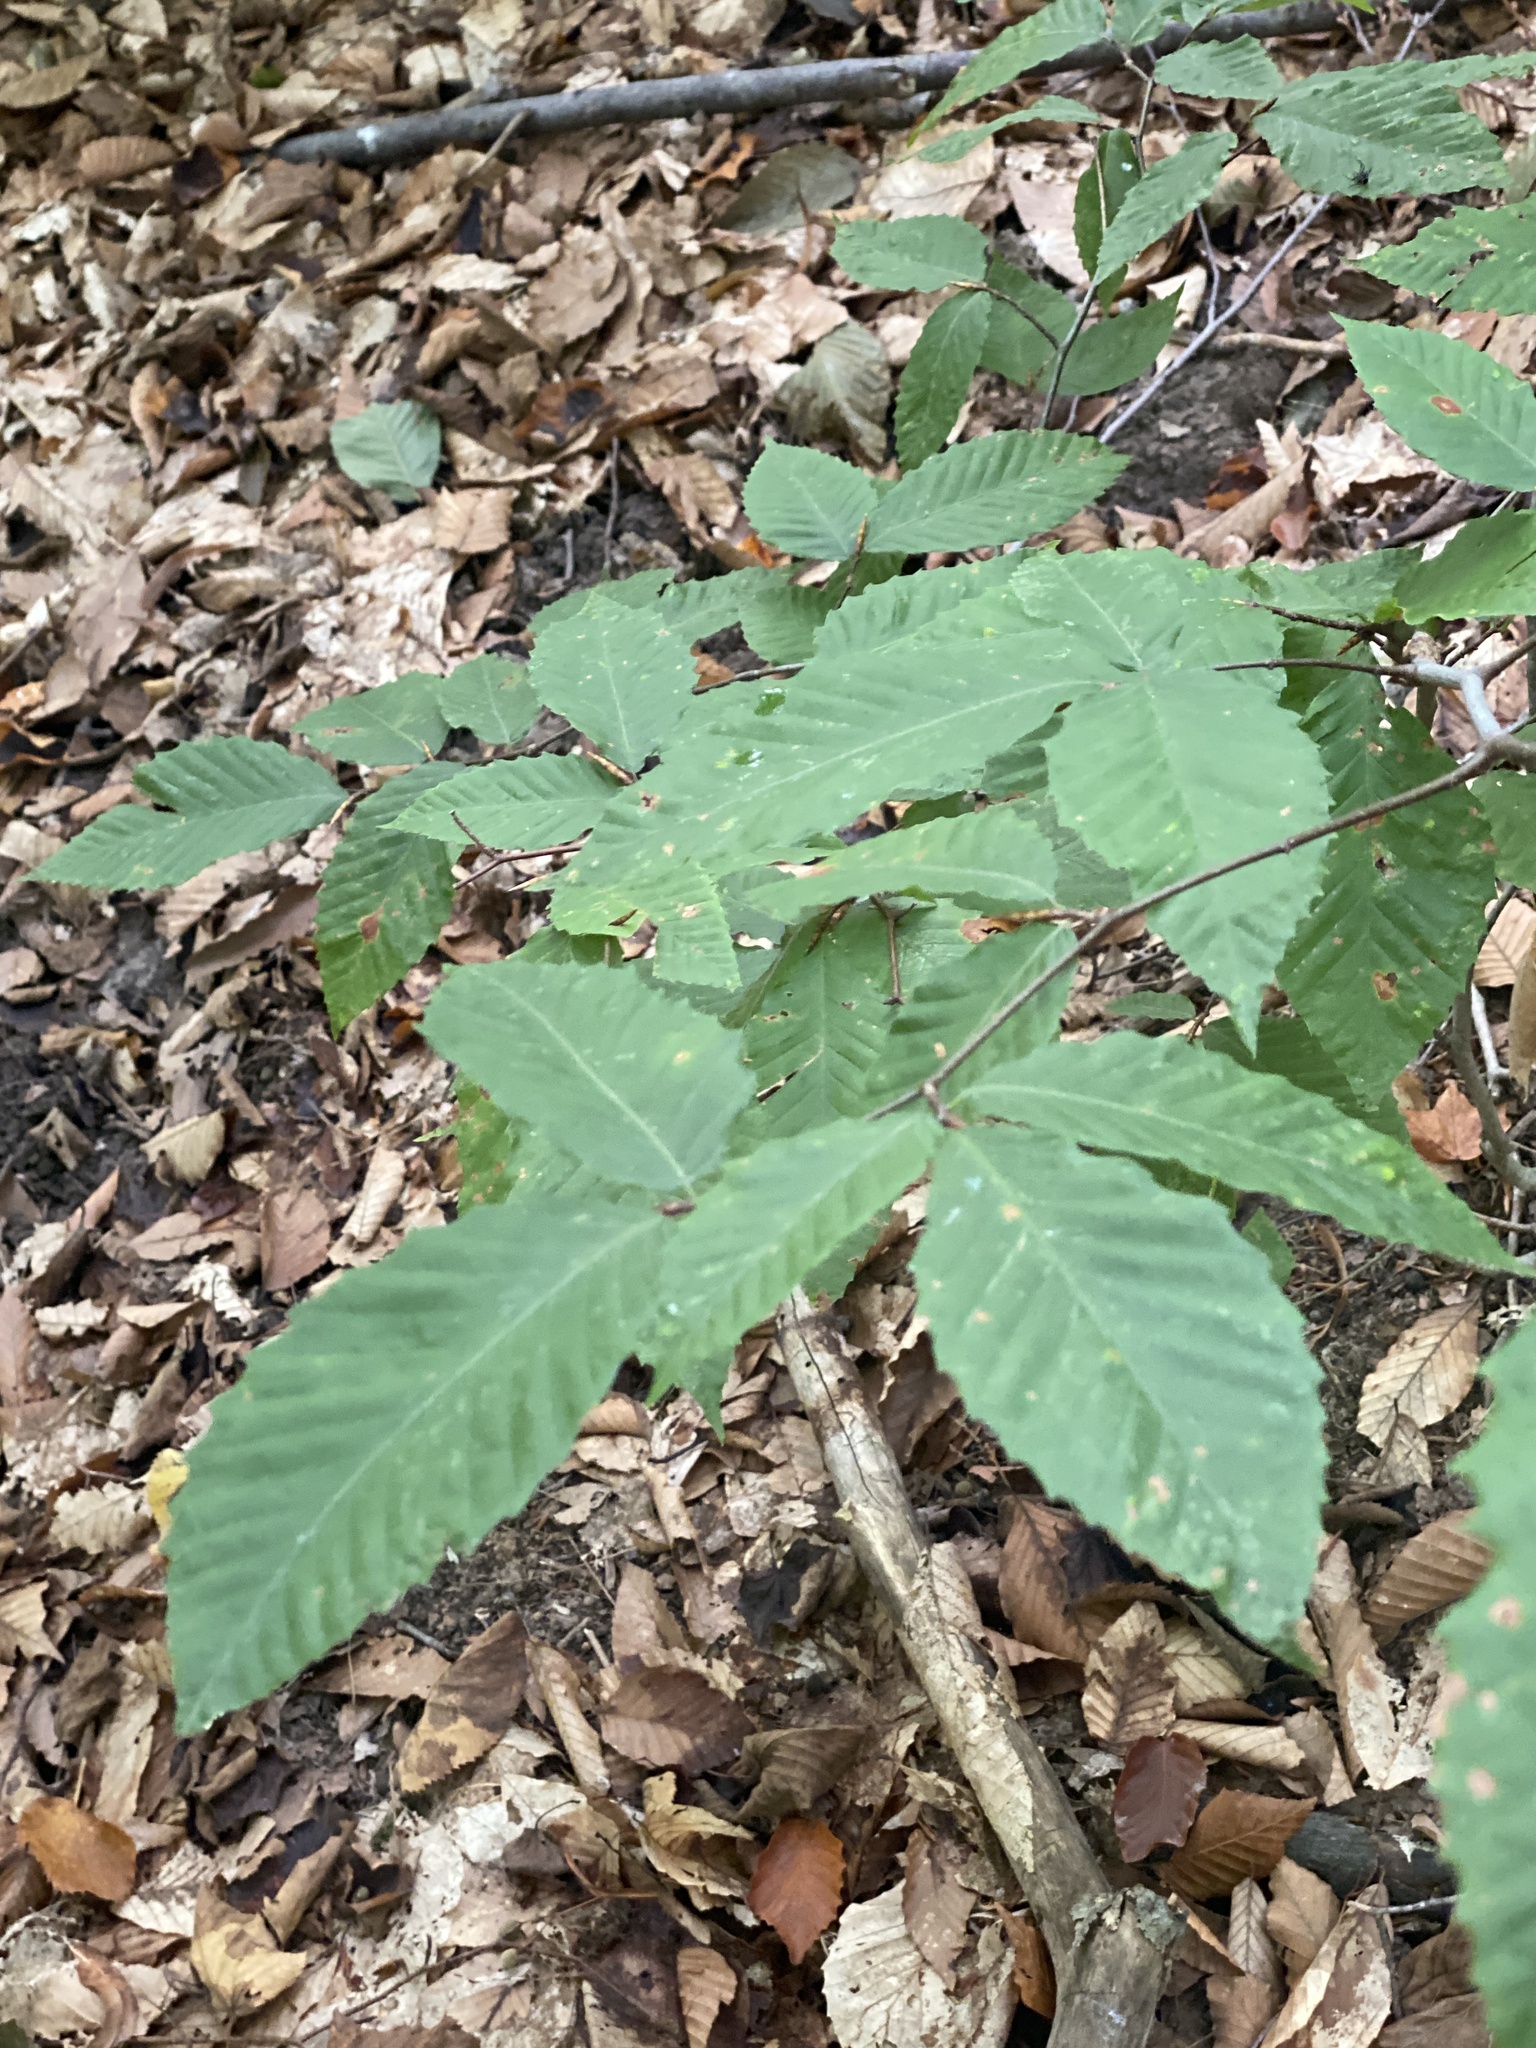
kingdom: Plantae
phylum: Tracheophyta
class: Magnoliopsida
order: Fagales
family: Fagaceae
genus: Fagus
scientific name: Fagus grandifolia
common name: American beech
